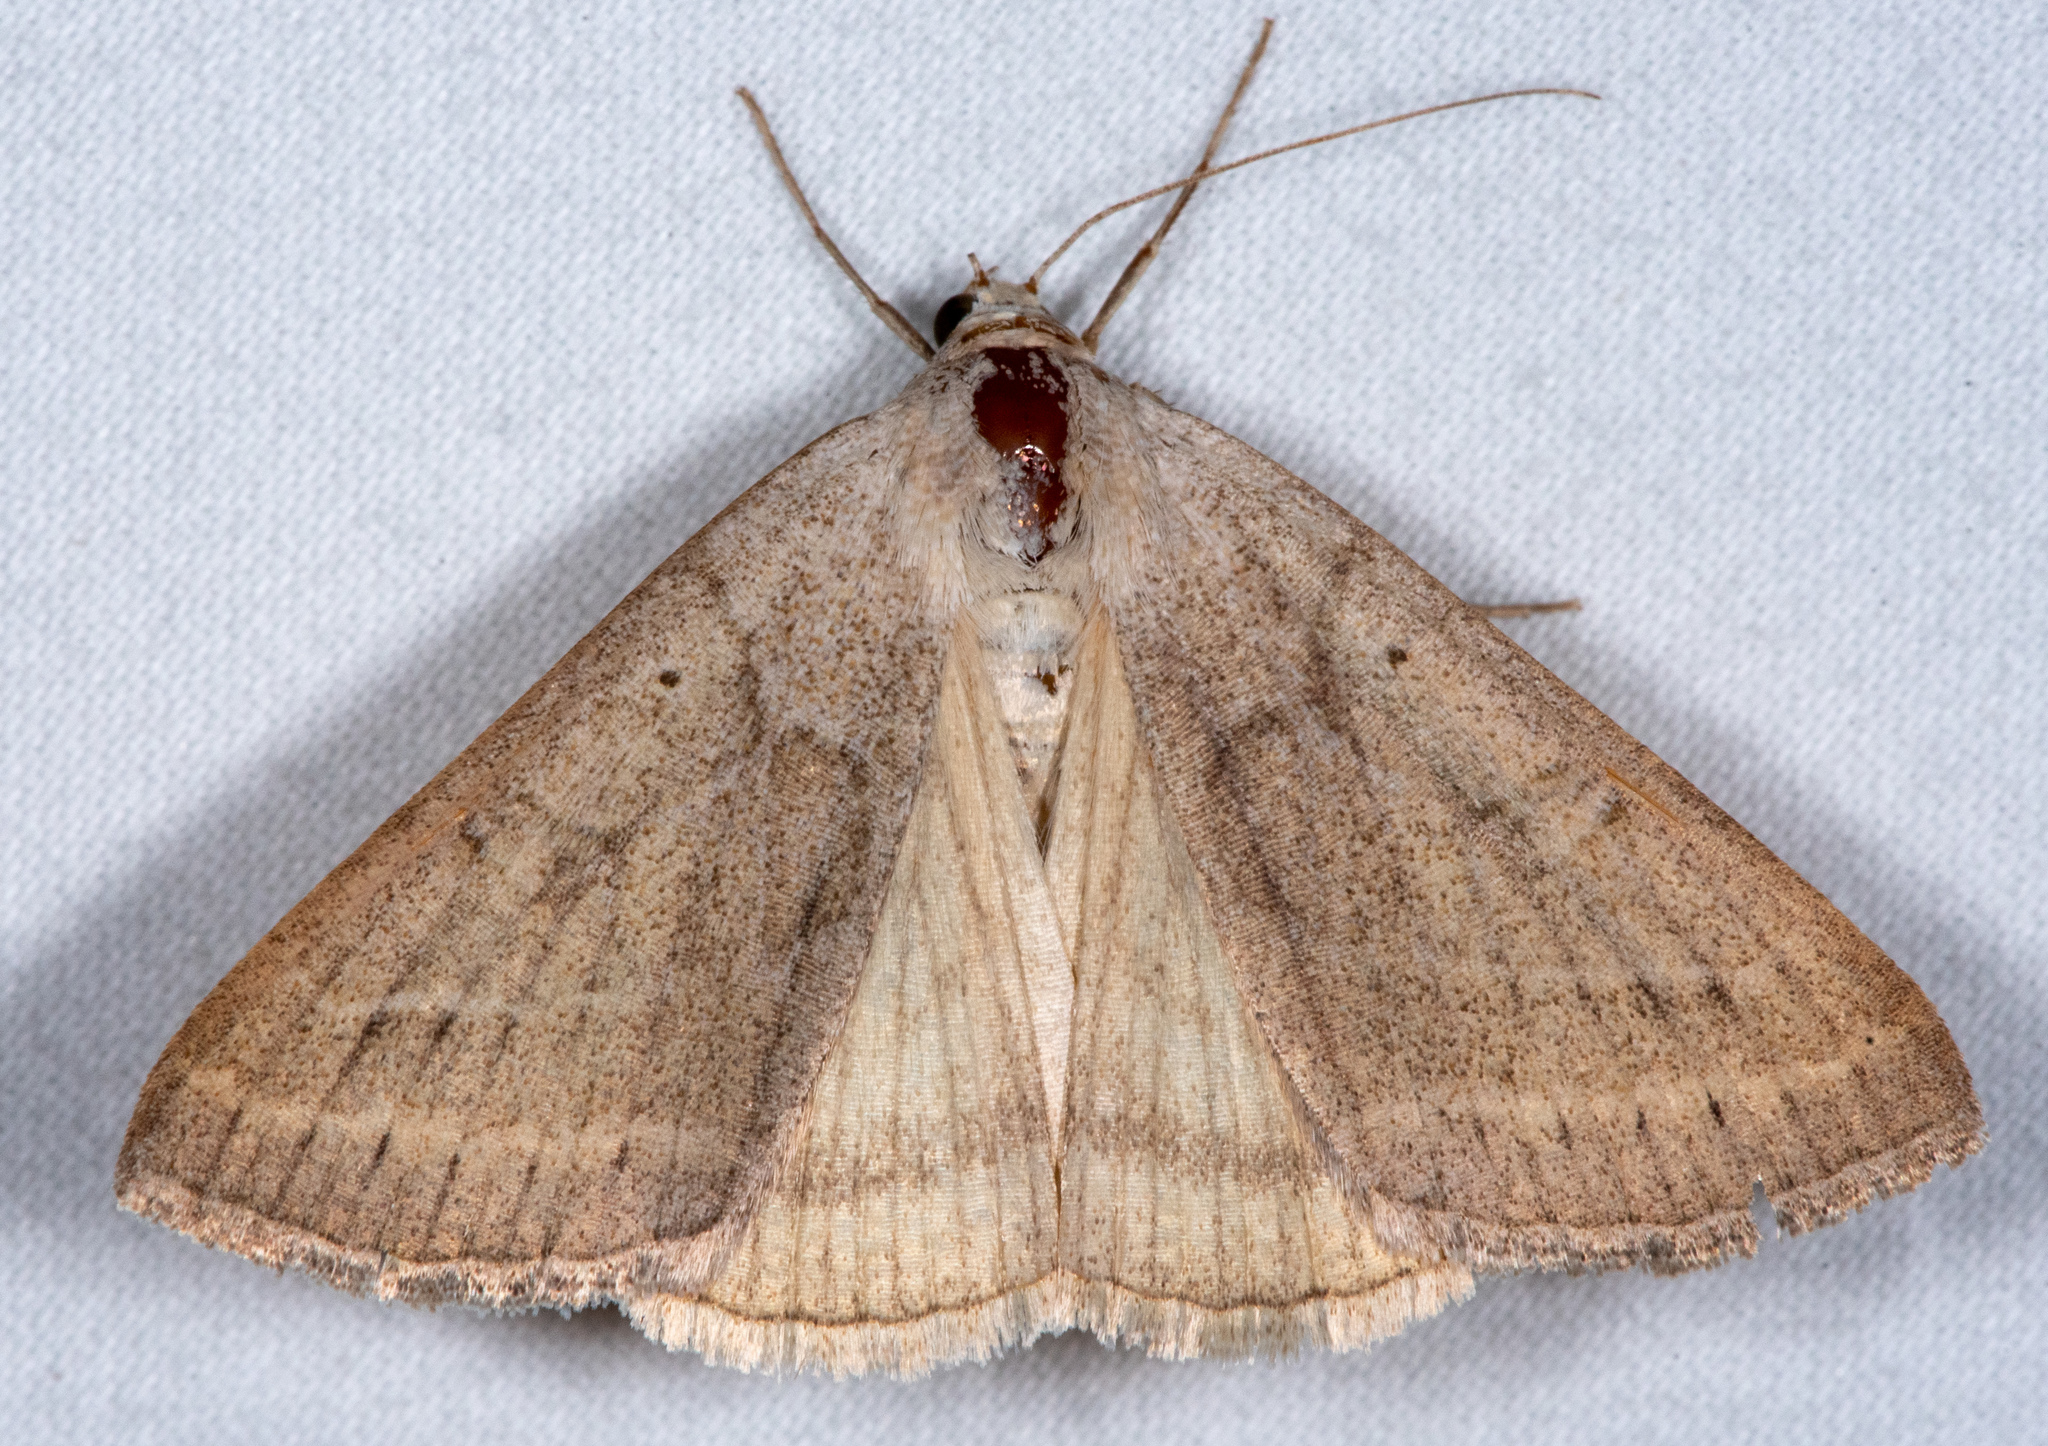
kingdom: Animalia
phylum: Arthropoda
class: Insecta
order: Lepidoptera
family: Erebidae
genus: Caenurgia
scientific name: Caenurgia togataria
